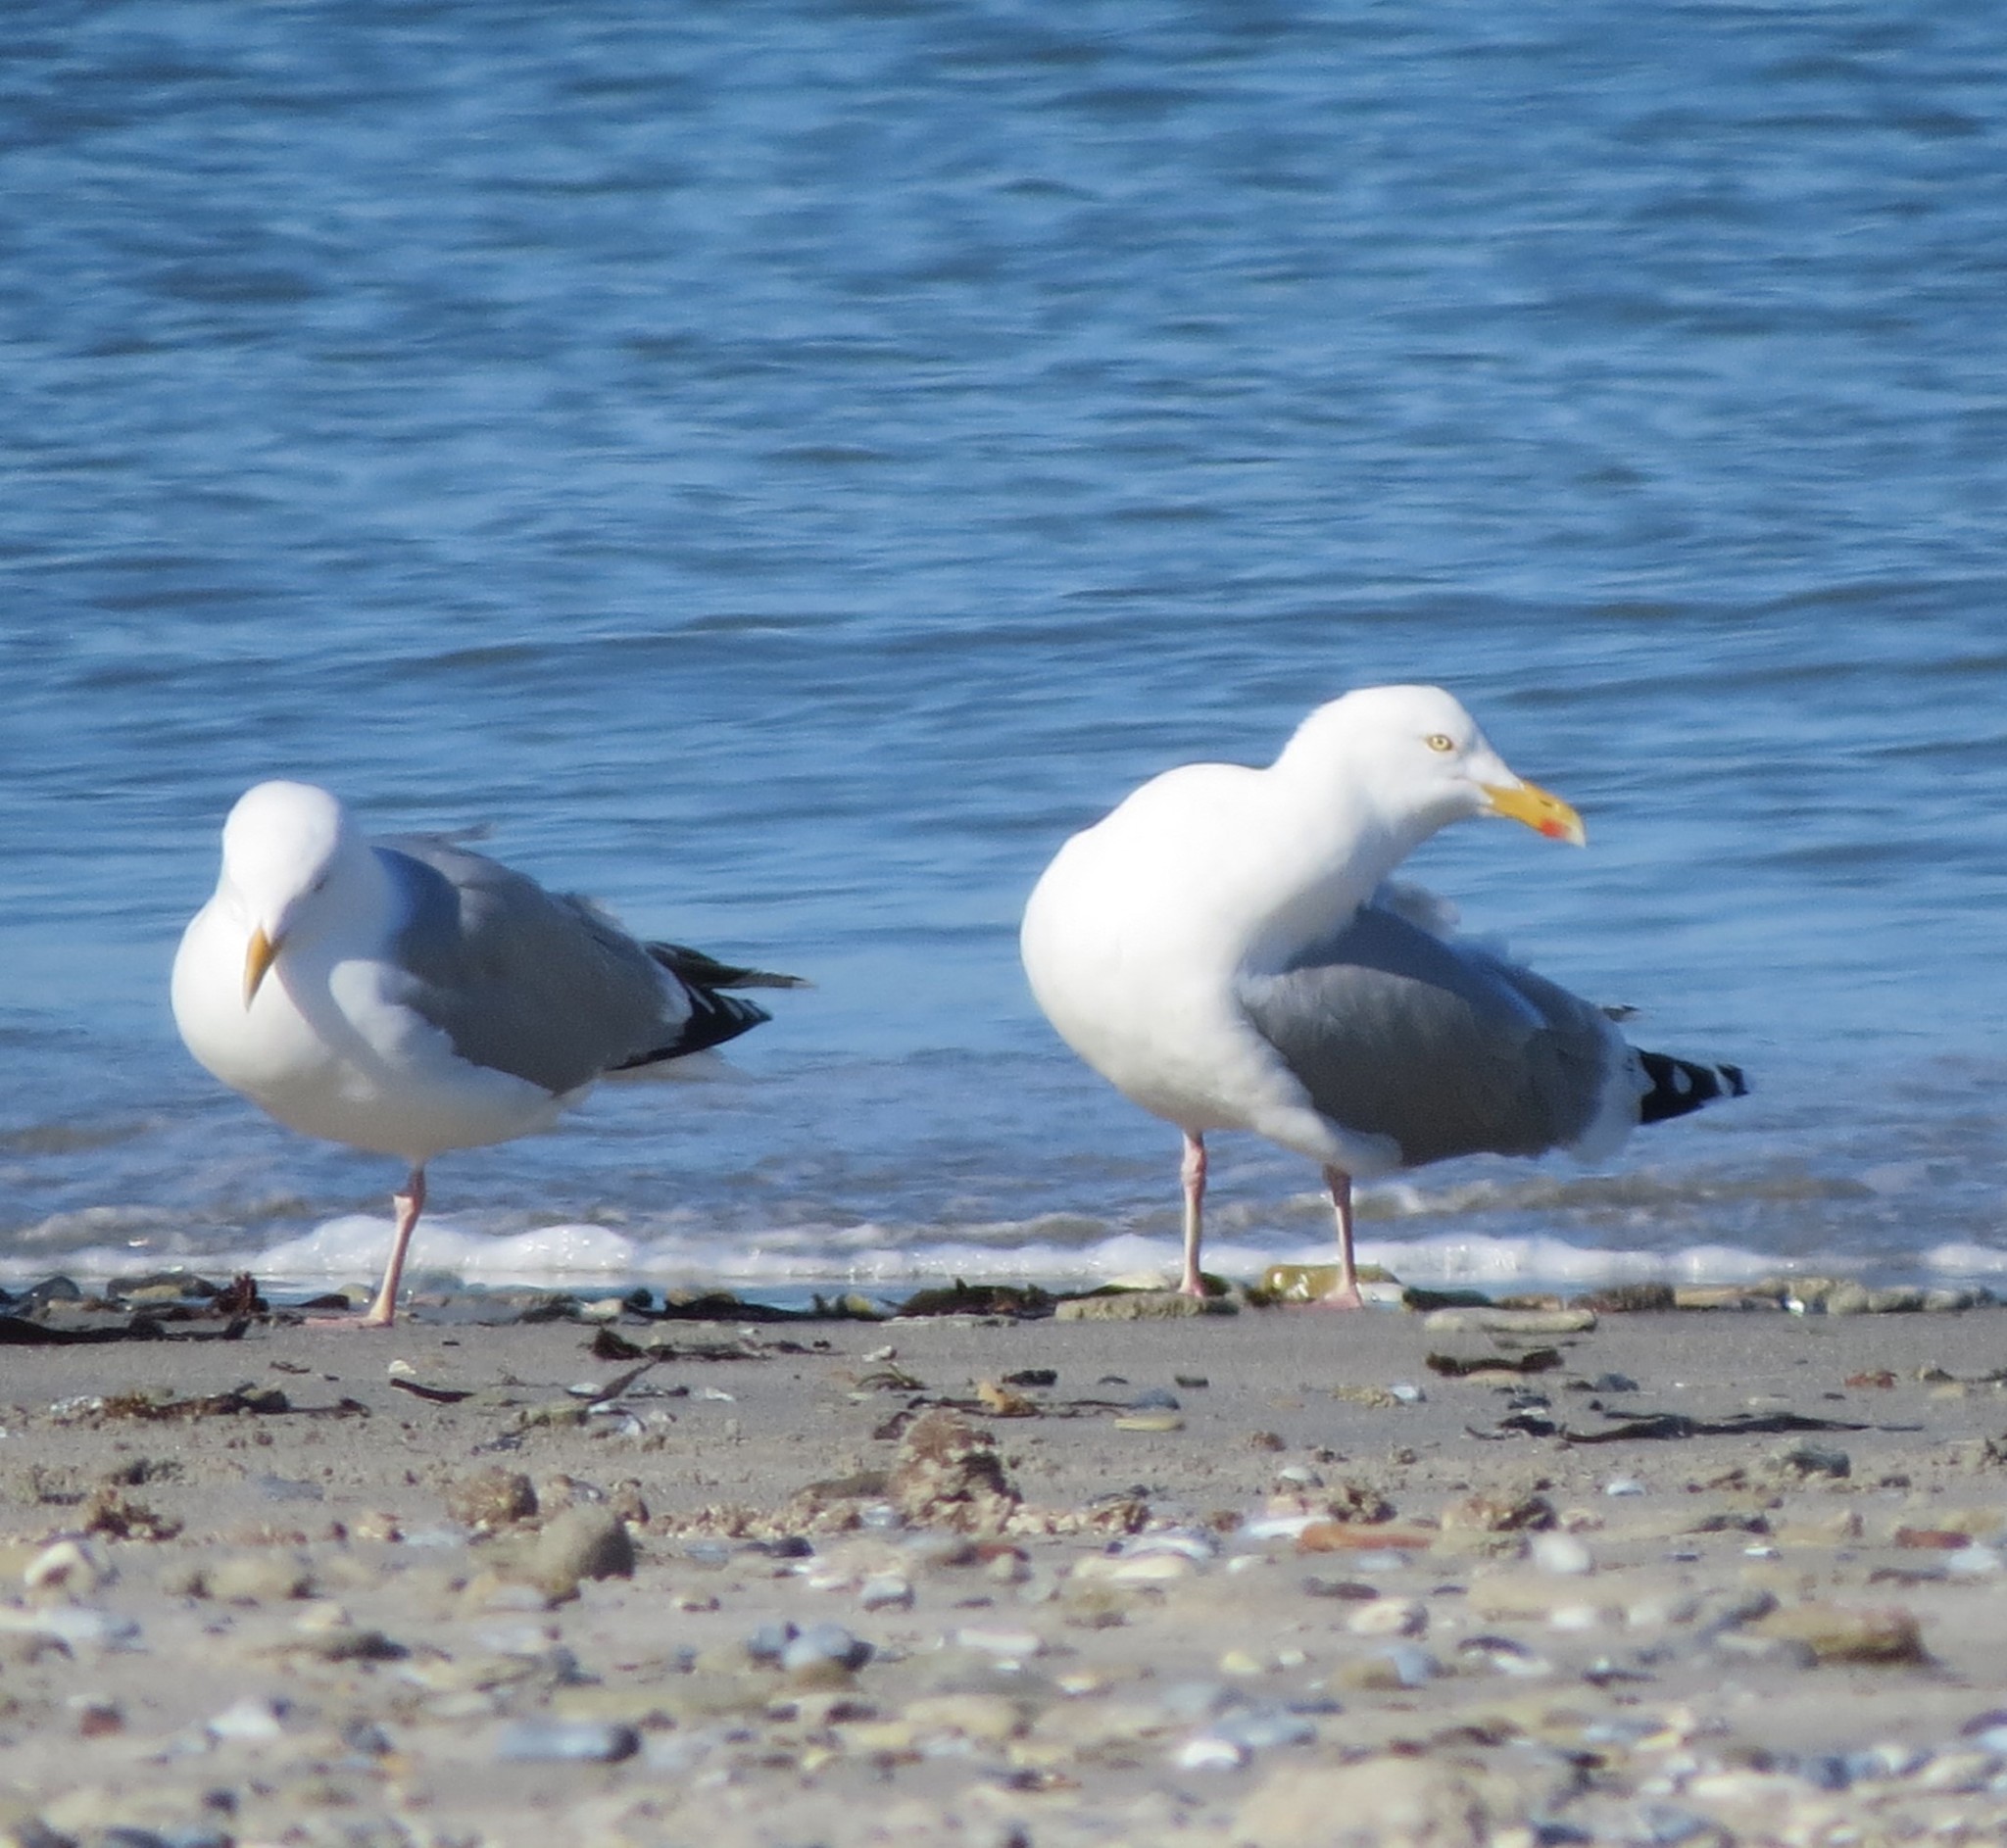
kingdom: Animalia
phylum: Chordata
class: Aves
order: Charadriiformes
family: Laridae
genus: Larus
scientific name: Larus argentatus
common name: Herring gull
